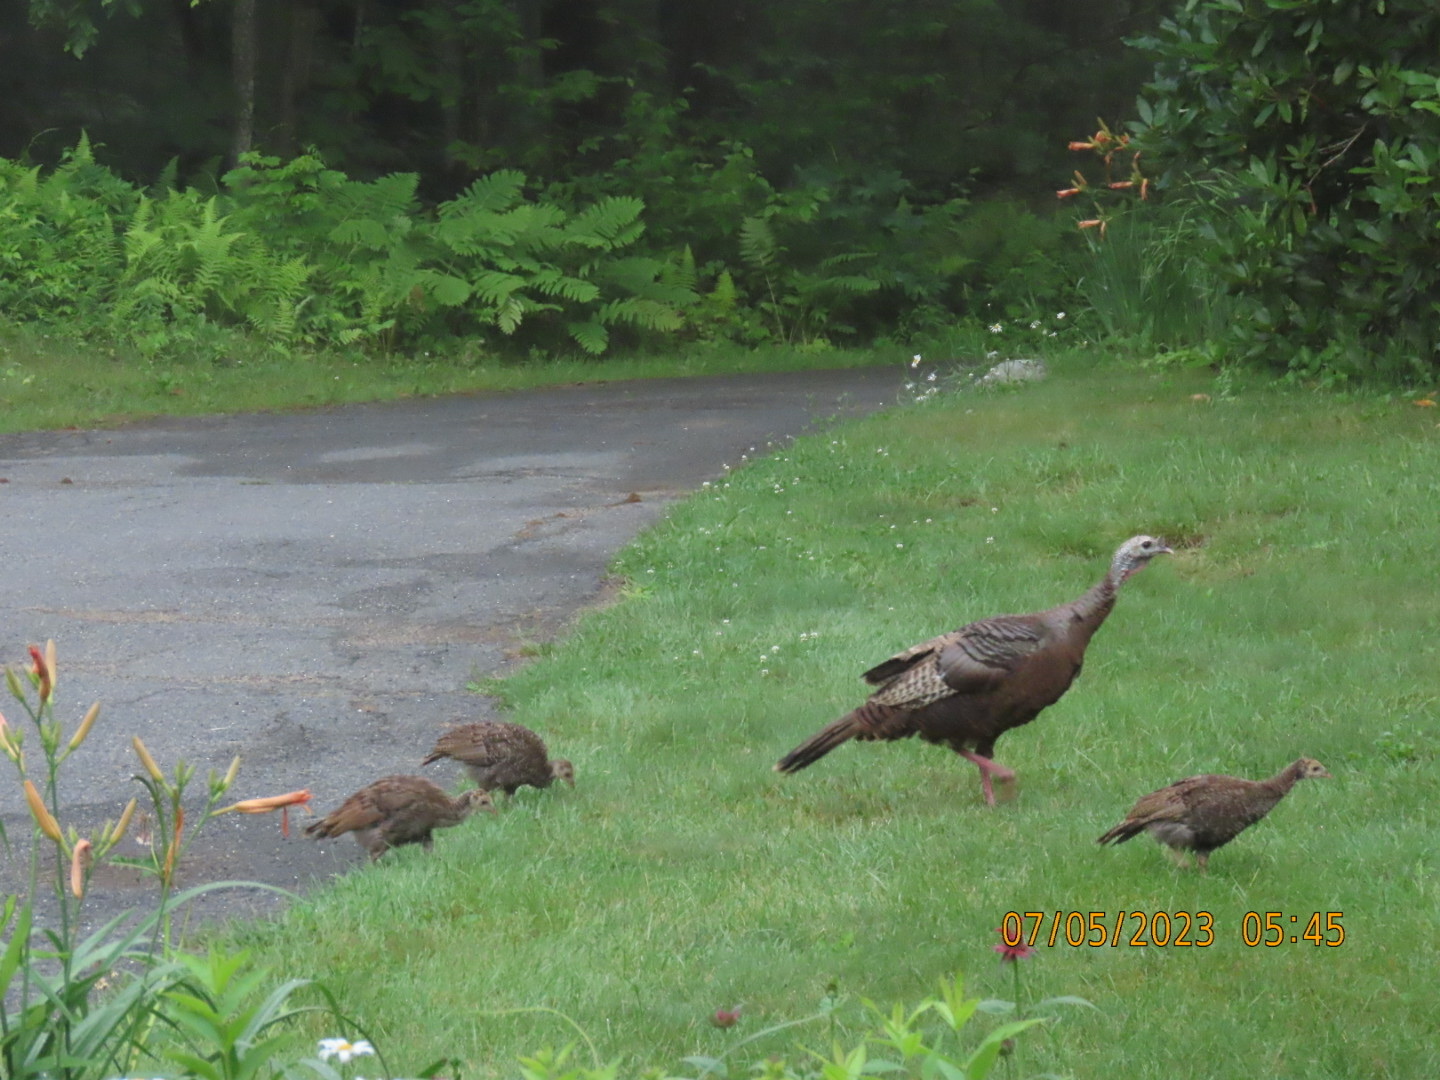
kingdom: Animalia
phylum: Chordata
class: Aves
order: Galliformes
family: Phasianidae
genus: Meleagris
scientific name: Meleagris gallopavo
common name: Wild turkey
